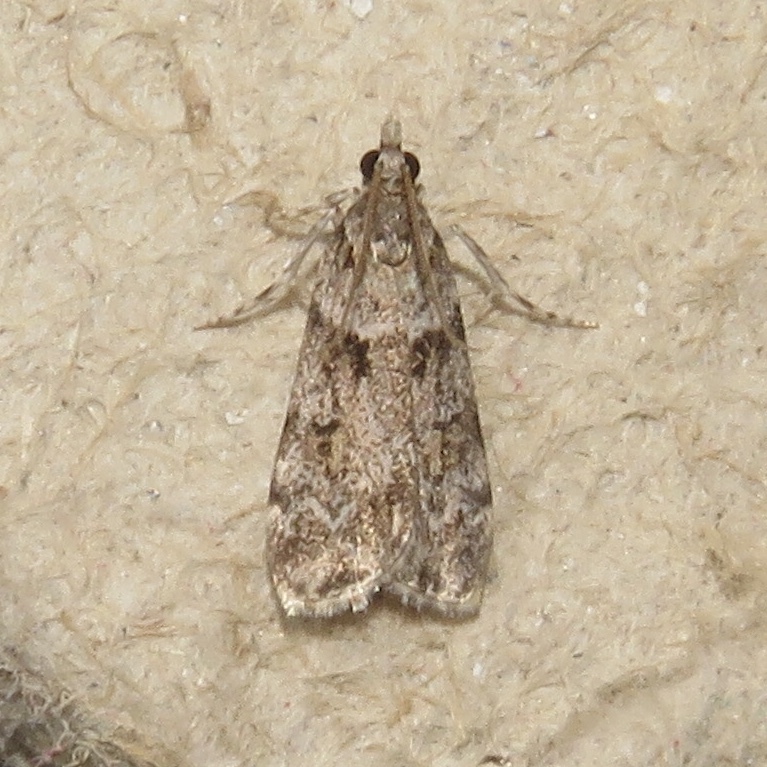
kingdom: Animalia
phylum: Arthropoda
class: Insecta
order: Lepidoptera
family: Crambidae
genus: Scoparia
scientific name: Scoparia biplagialis
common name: Double-striped scoparia moth
